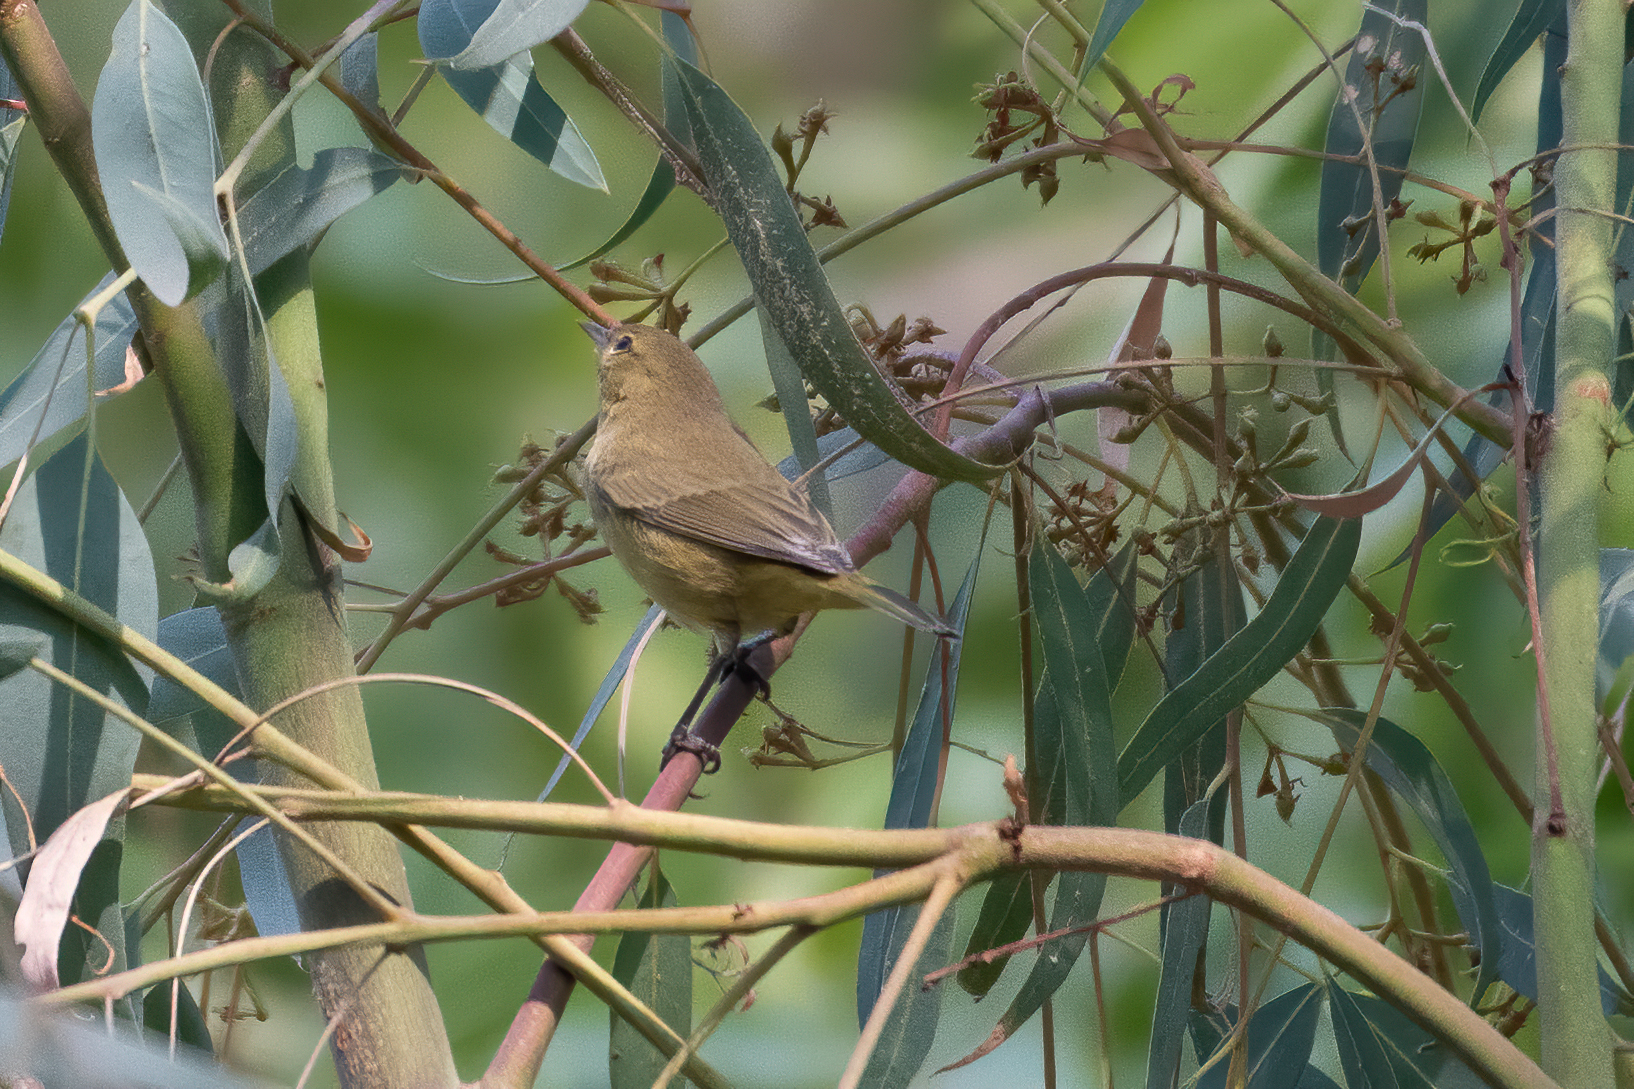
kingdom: Animalia
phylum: Chordata
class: Aves
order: Passeriformes
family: Parulidae
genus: Leiothlypis
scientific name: Leiothlypis celata
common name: Orange-crowned warbler
